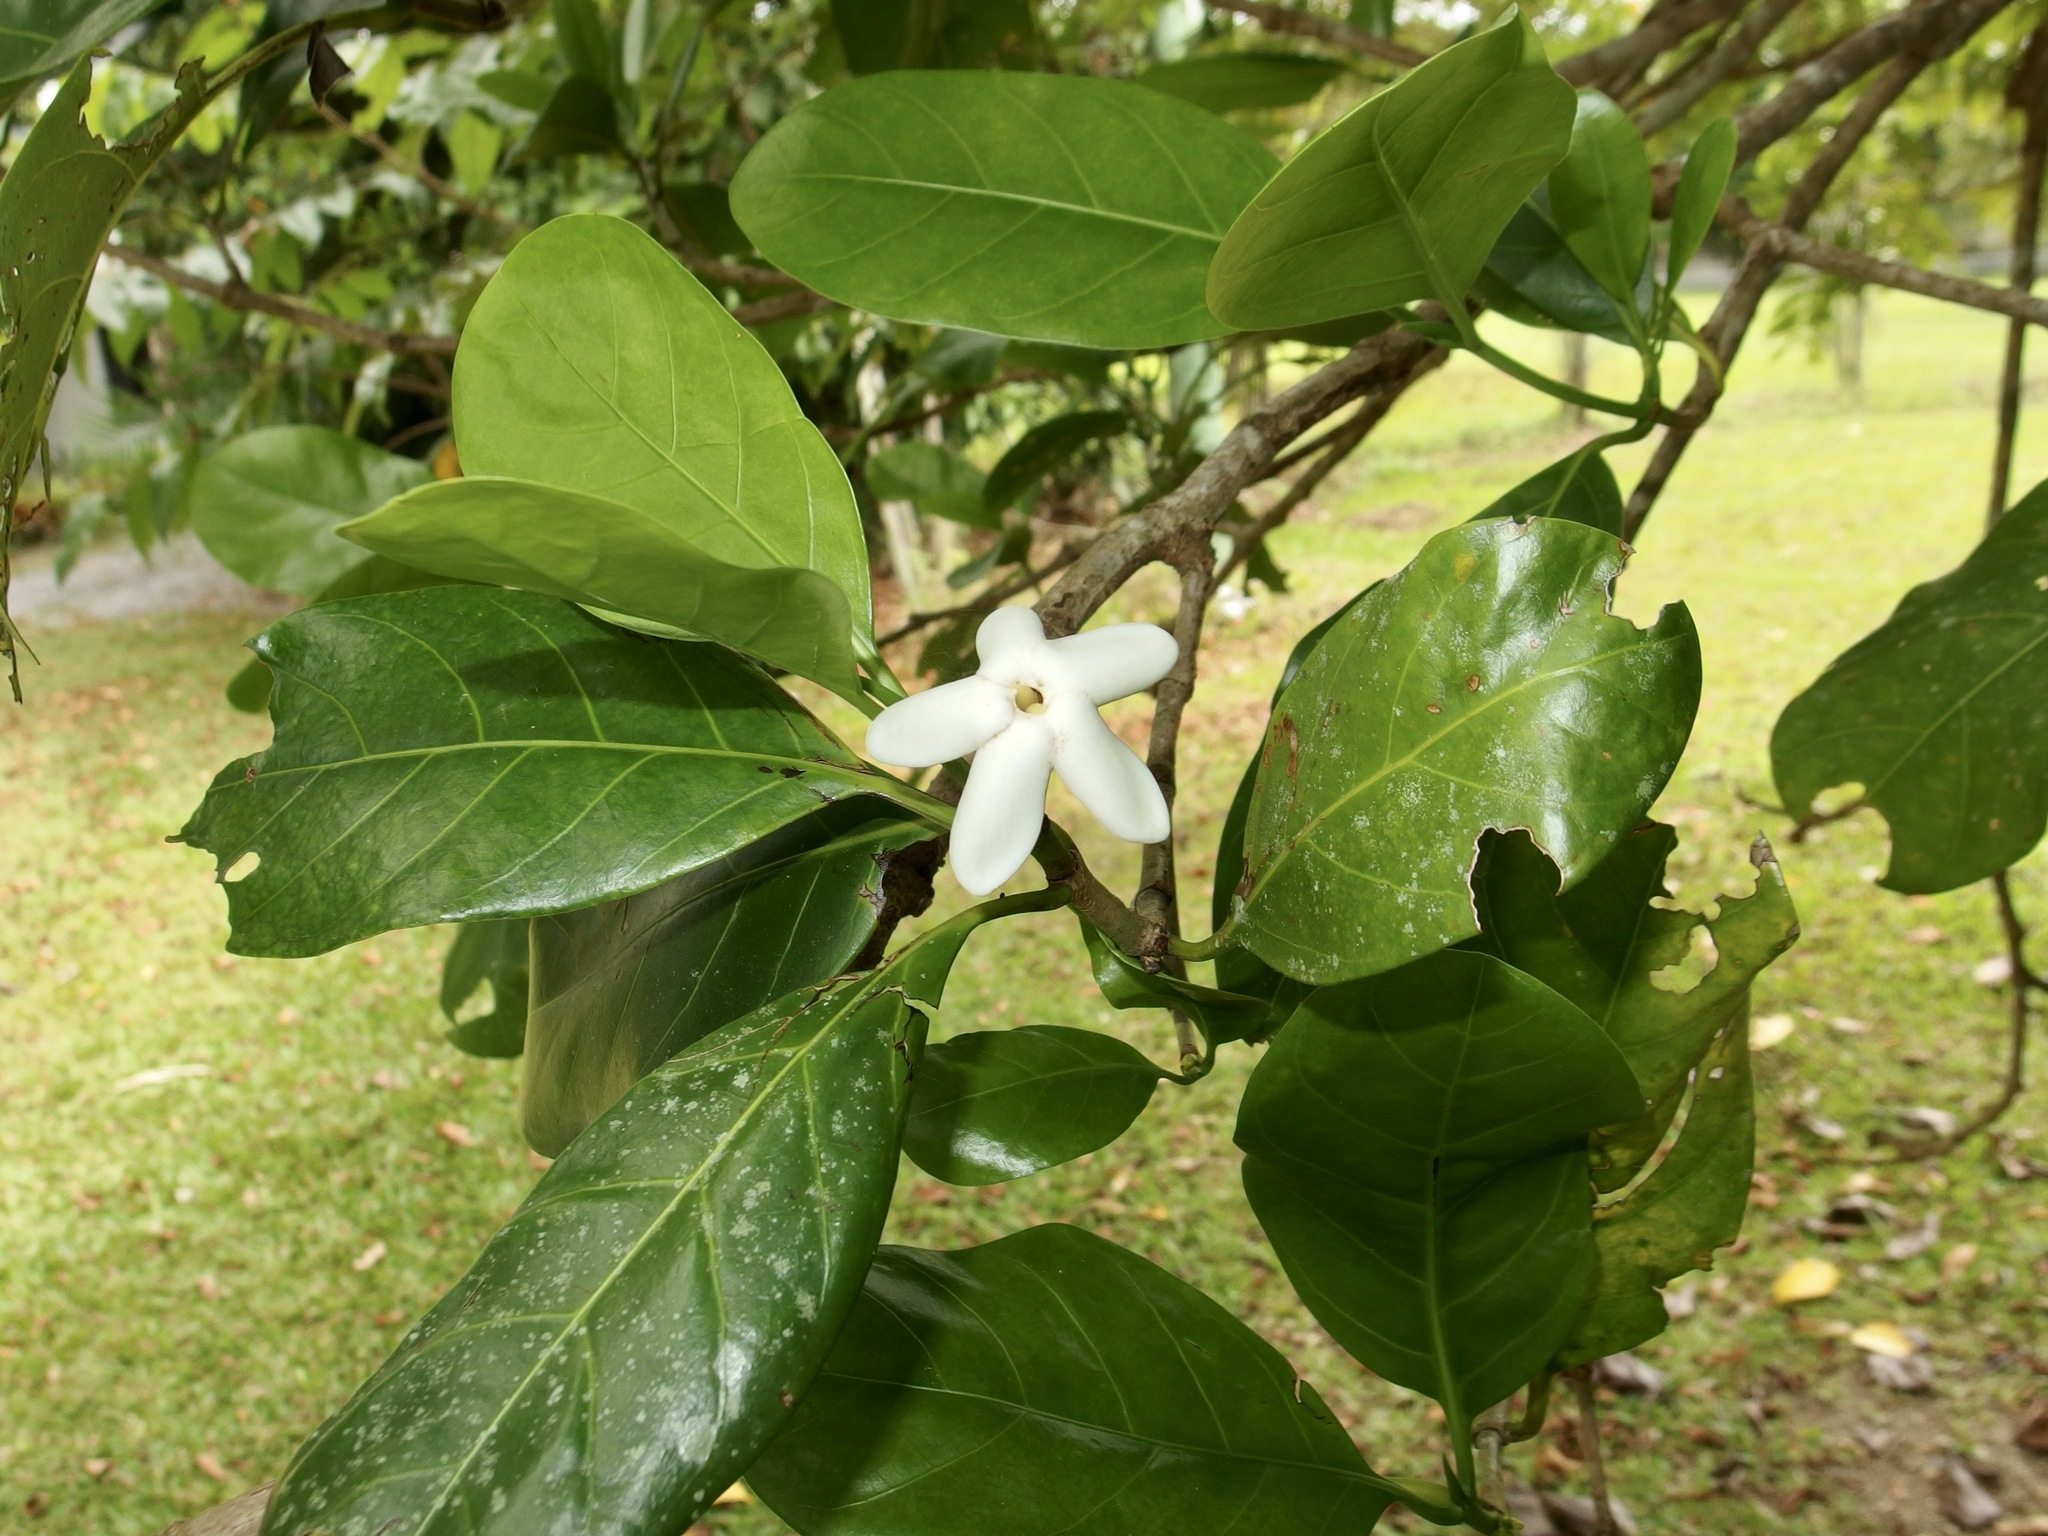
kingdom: Plantae
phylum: Tracheophyta
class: Magnoliopsida
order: Gentianales
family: Rubiaceae
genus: Atractocarpus
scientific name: Atractocarpus fitzalanii
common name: Randia
